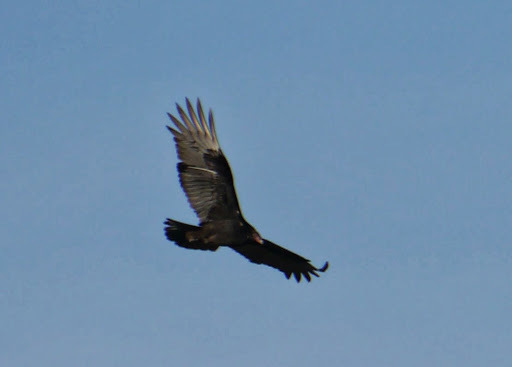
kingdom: Animalia
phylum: Chordata
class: Aves
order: Accipitriformes
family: Cathartidae
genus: Cathartes
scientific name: Cathartes aura
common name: Turkey vulture
